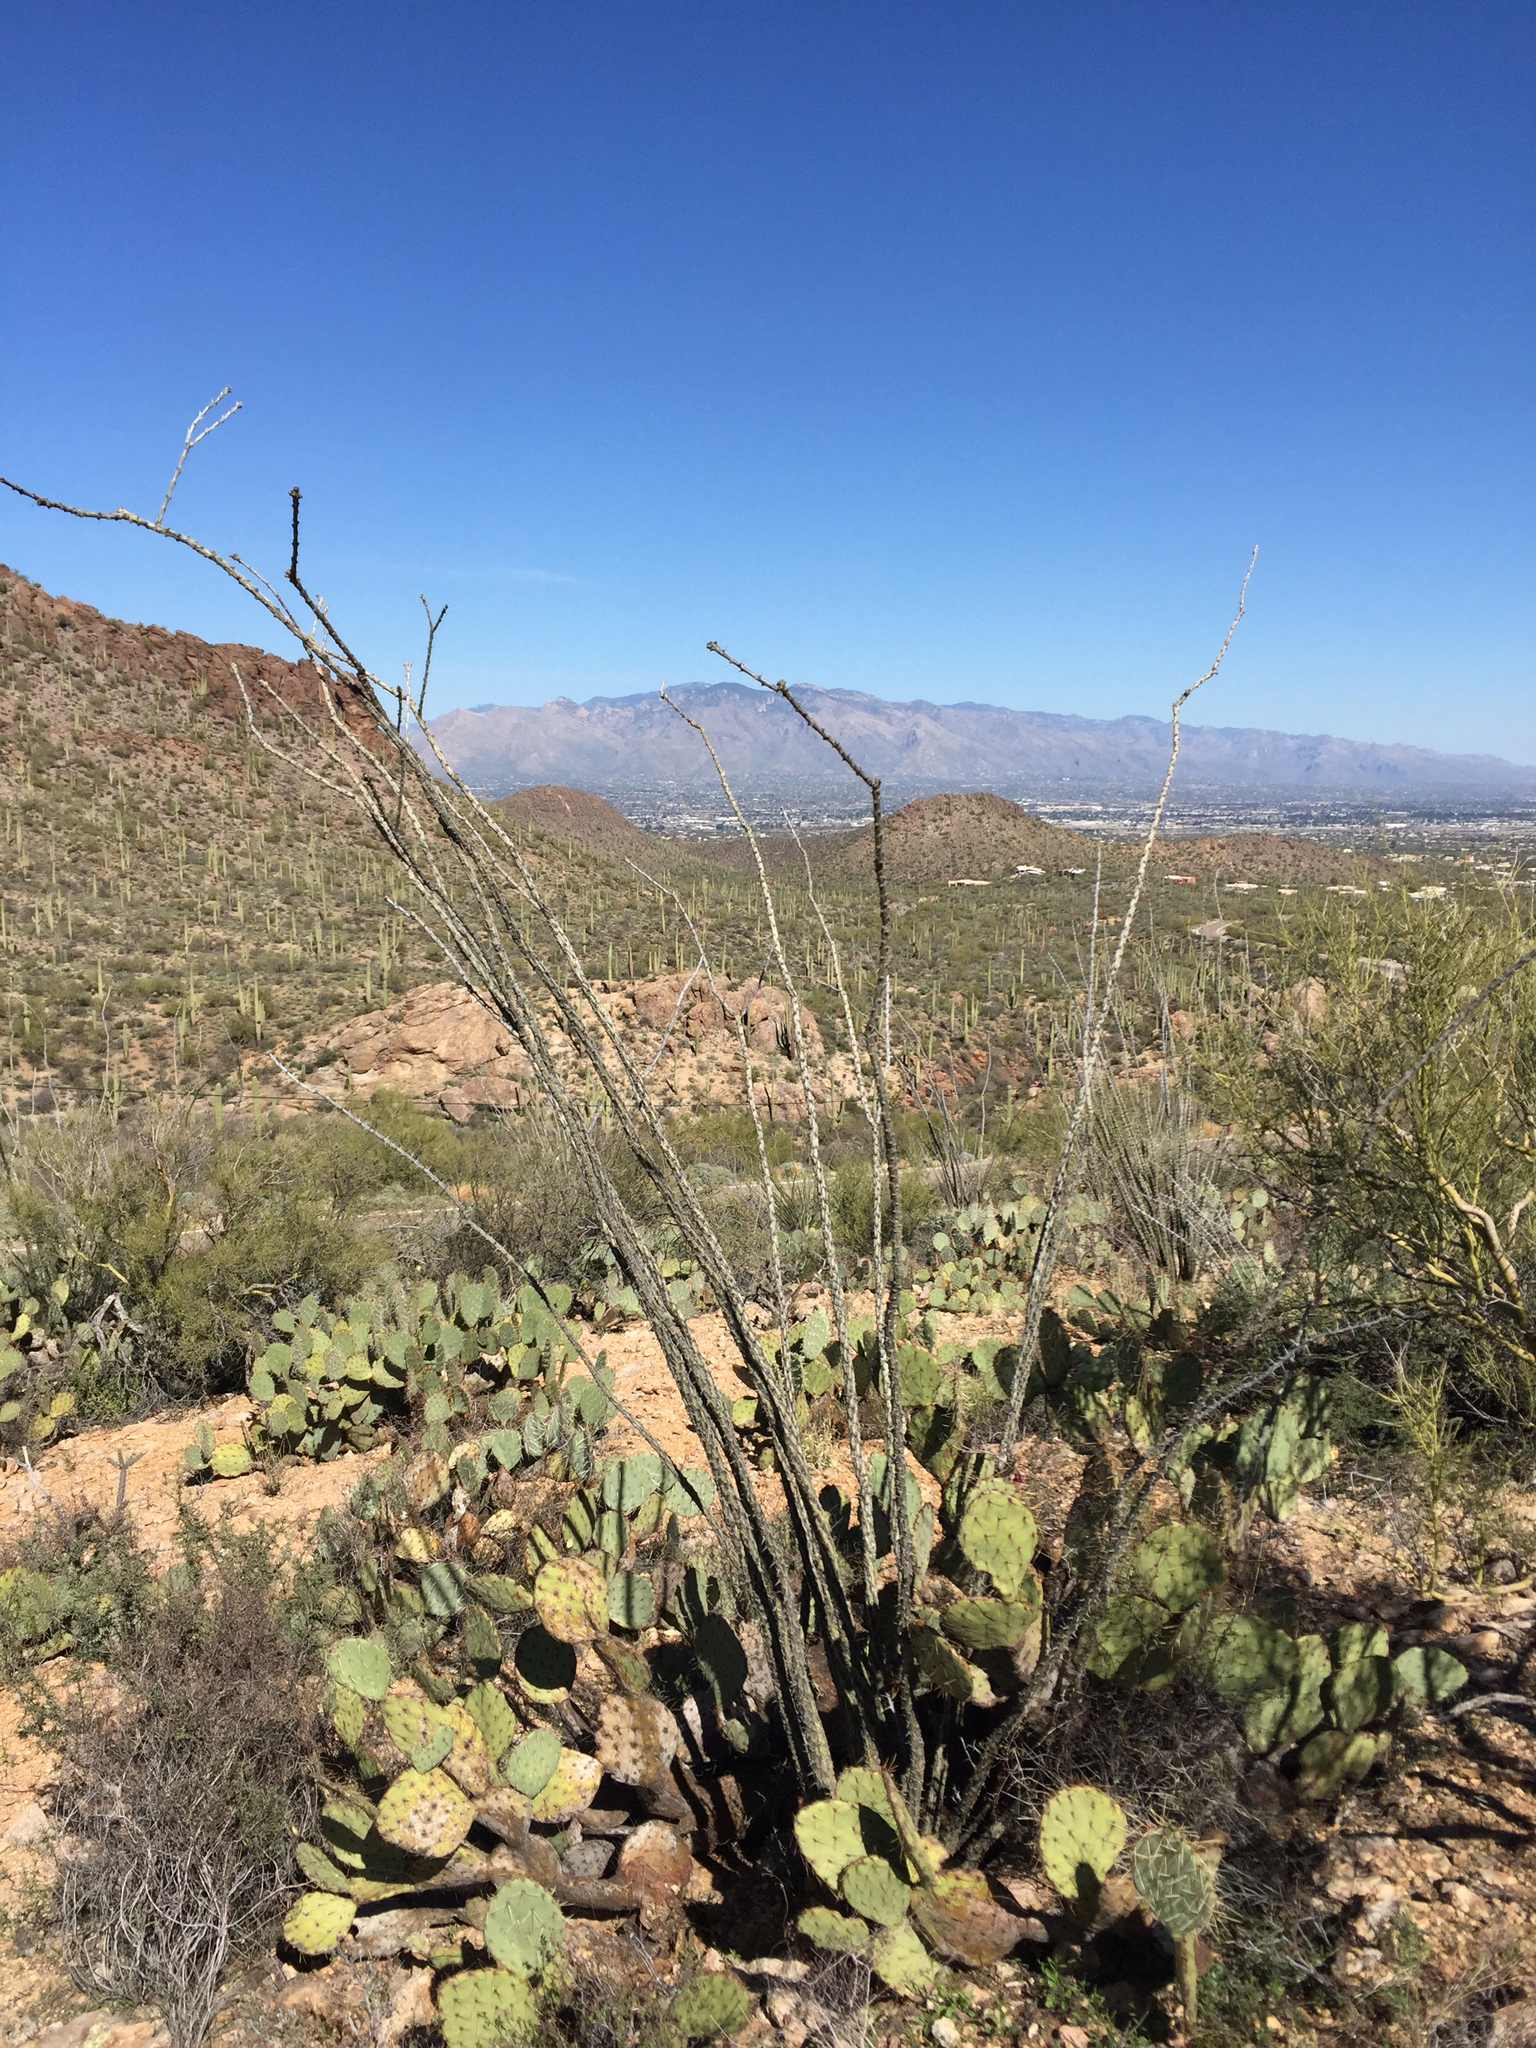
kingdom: Plantae
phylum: Tracheophyta
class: Magnoliopsida
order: Ericales
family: Fouquieriaceae
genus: Fouquieria
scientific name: Fouquieria splendens
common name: Vine-cactus
